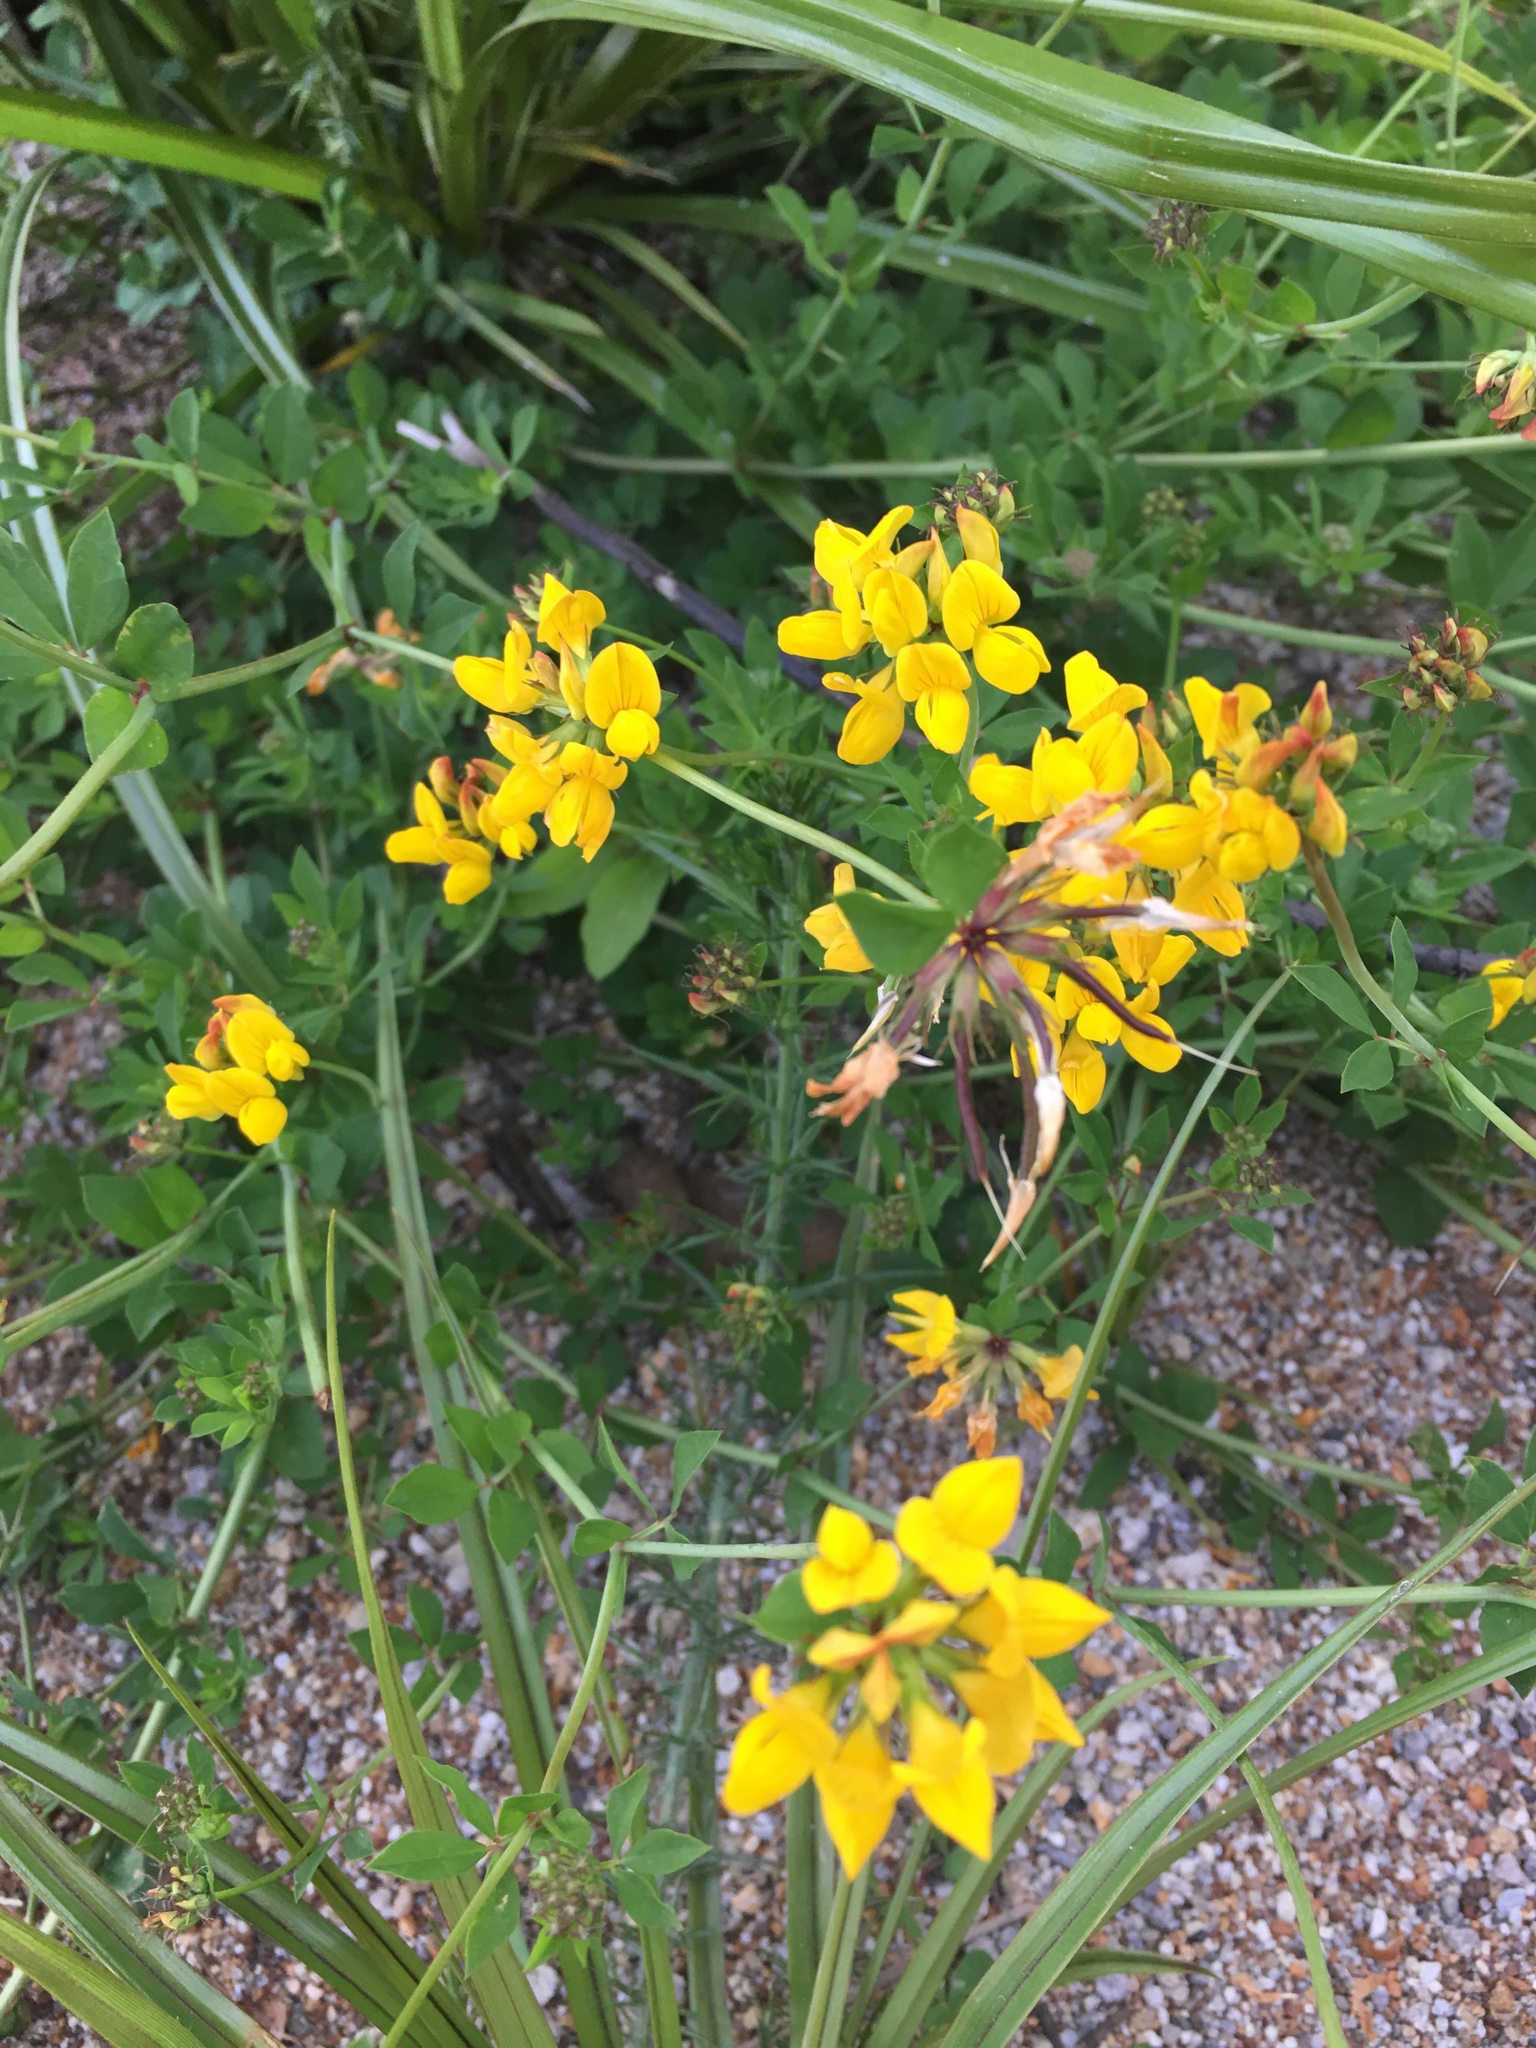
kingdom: Plantae
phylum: Tracheophyta
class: Magnoliopsida
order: Fabales
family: Fabaceae
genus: Lotus
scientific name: Lotus pedunculatus
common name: Greater birdsfoot-trefoil
